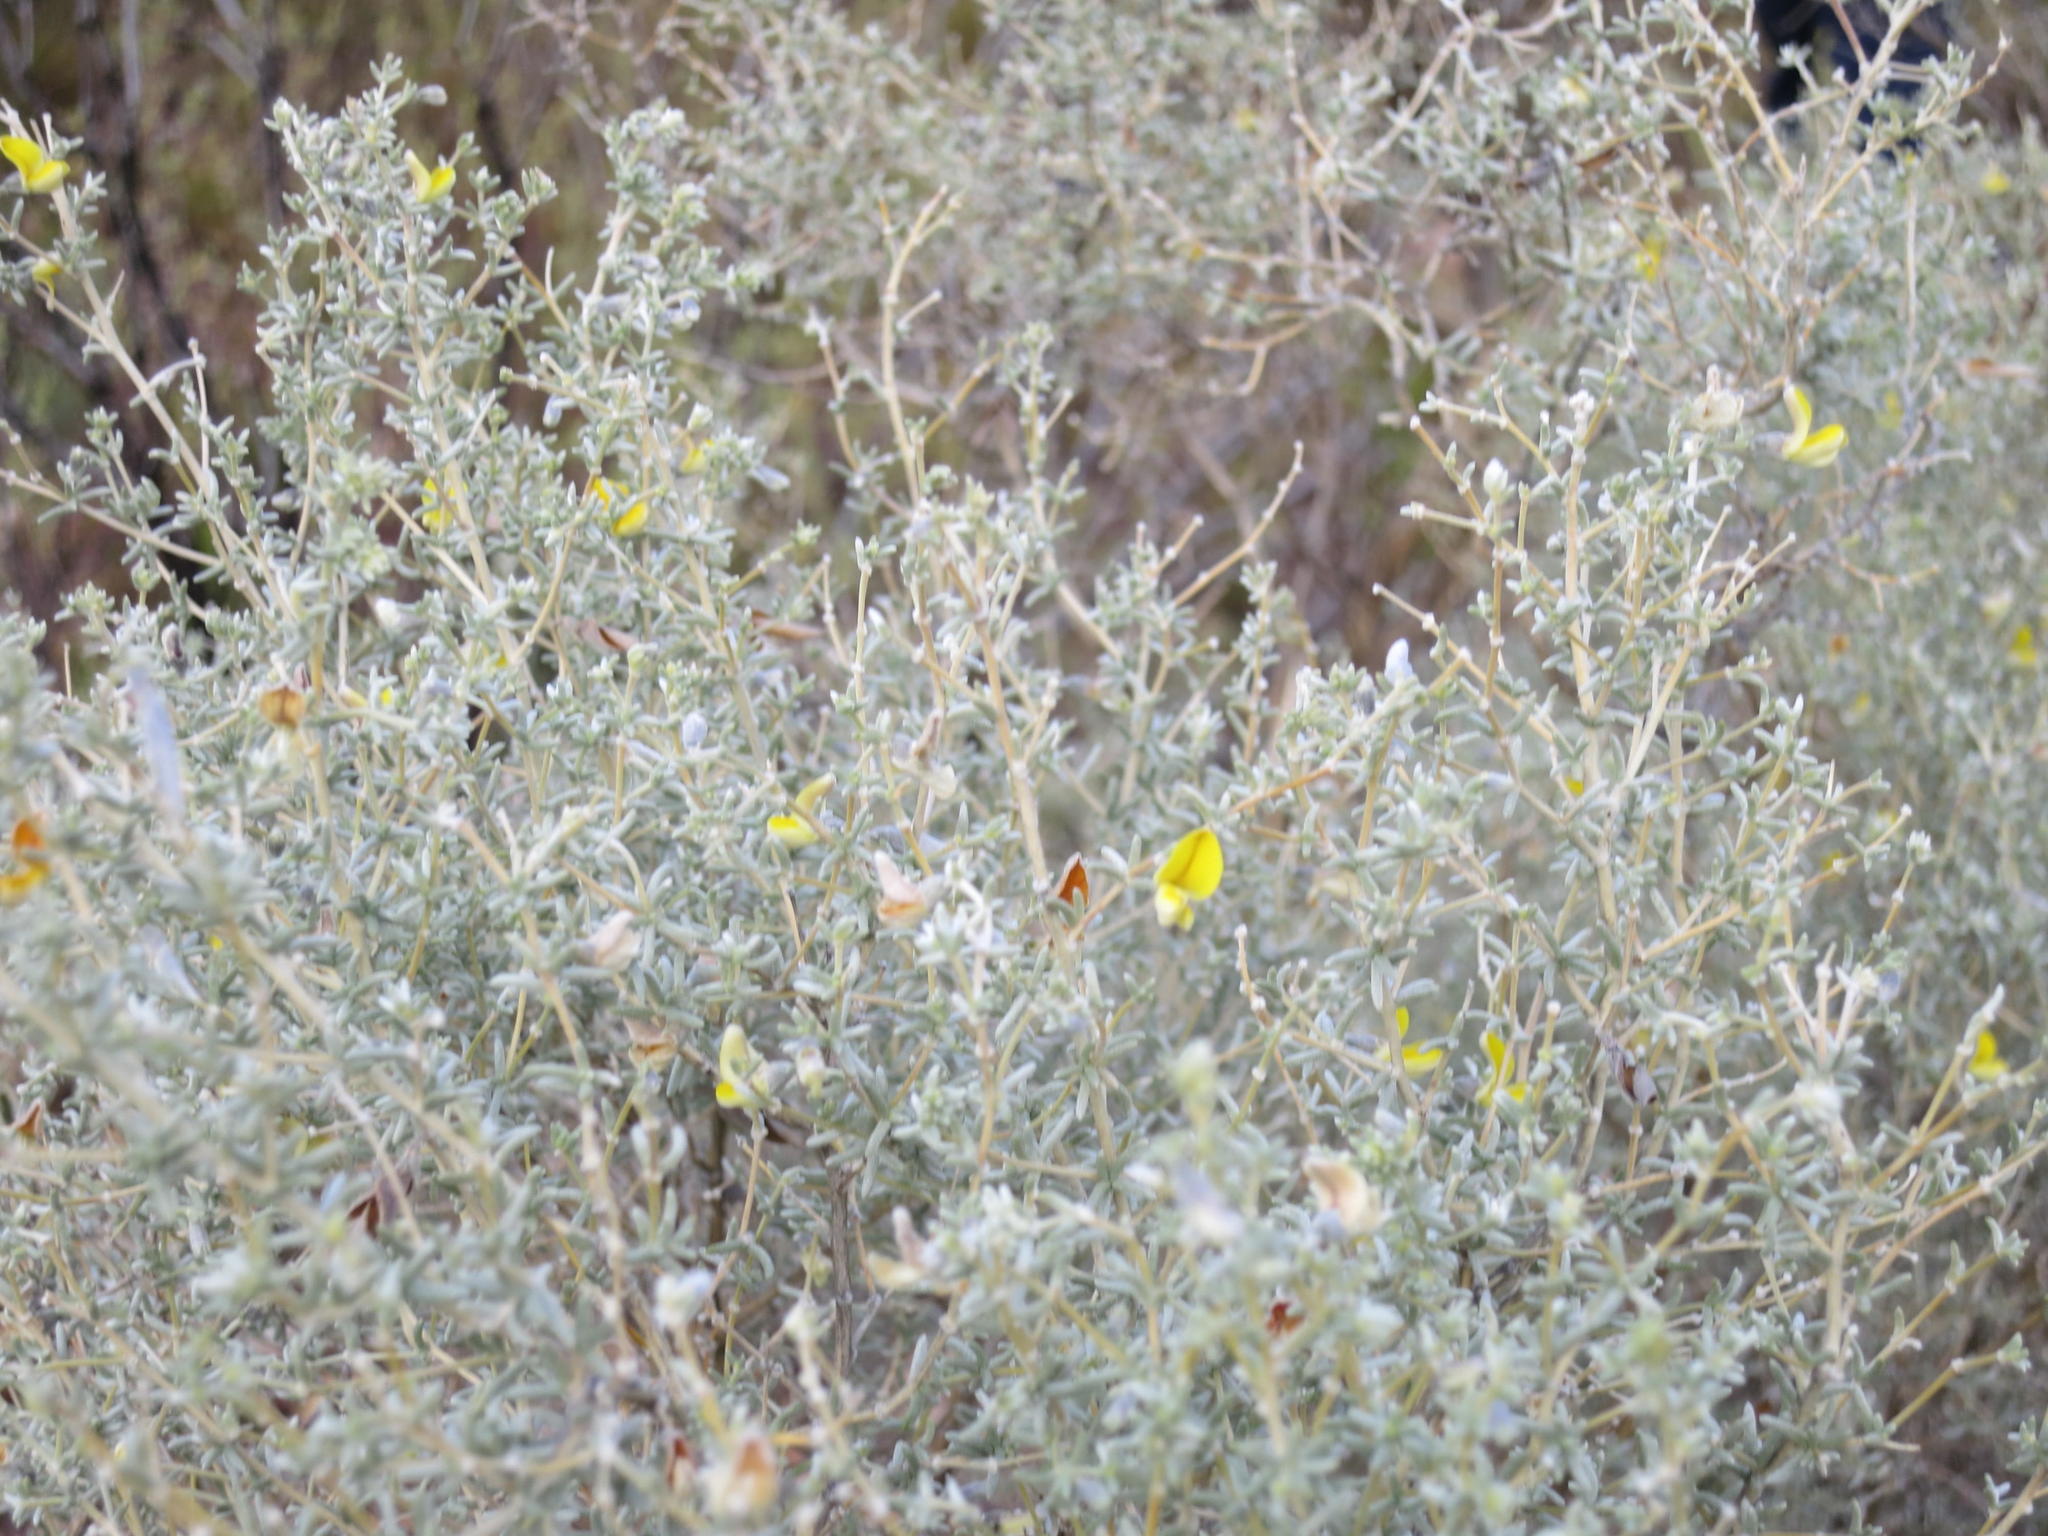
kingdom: Plantae
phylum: Tracheophyta
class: Magnoliopsida
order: Fabales
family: Fabaceae
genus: Aspalathus
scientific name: Aspalathus pedunculata
